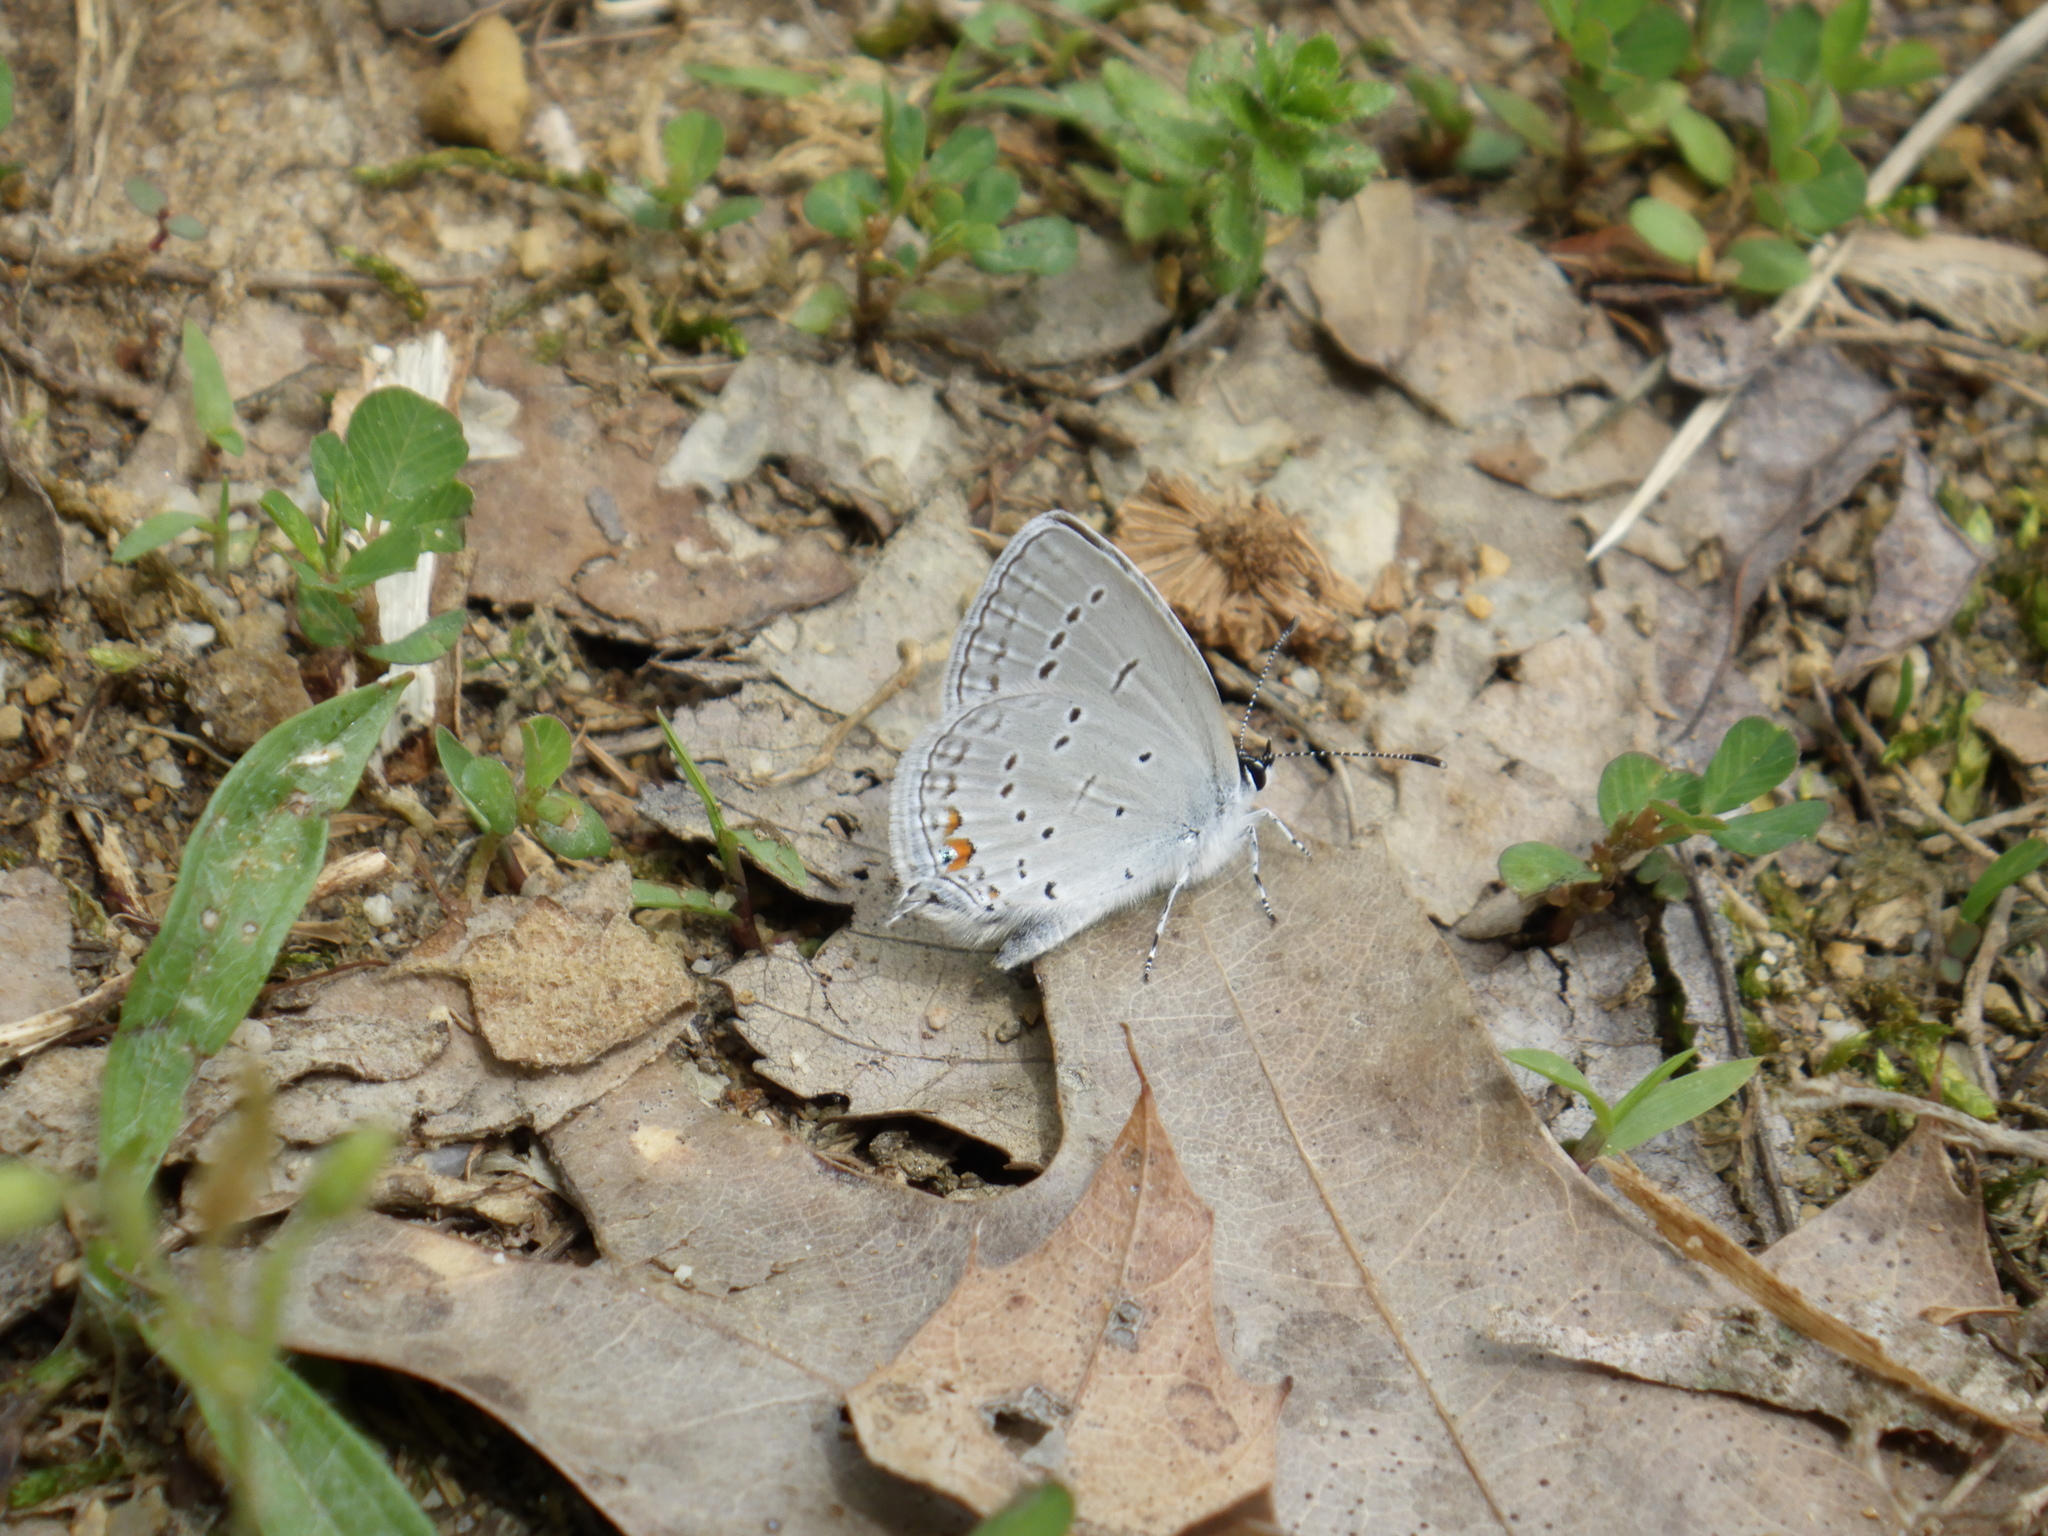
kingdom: Animalia
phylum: Arthropoda
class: Insecta
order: Lepidoptera
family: Lycaenidae
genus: Elkalyce
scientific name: Elkalyce comyntas
